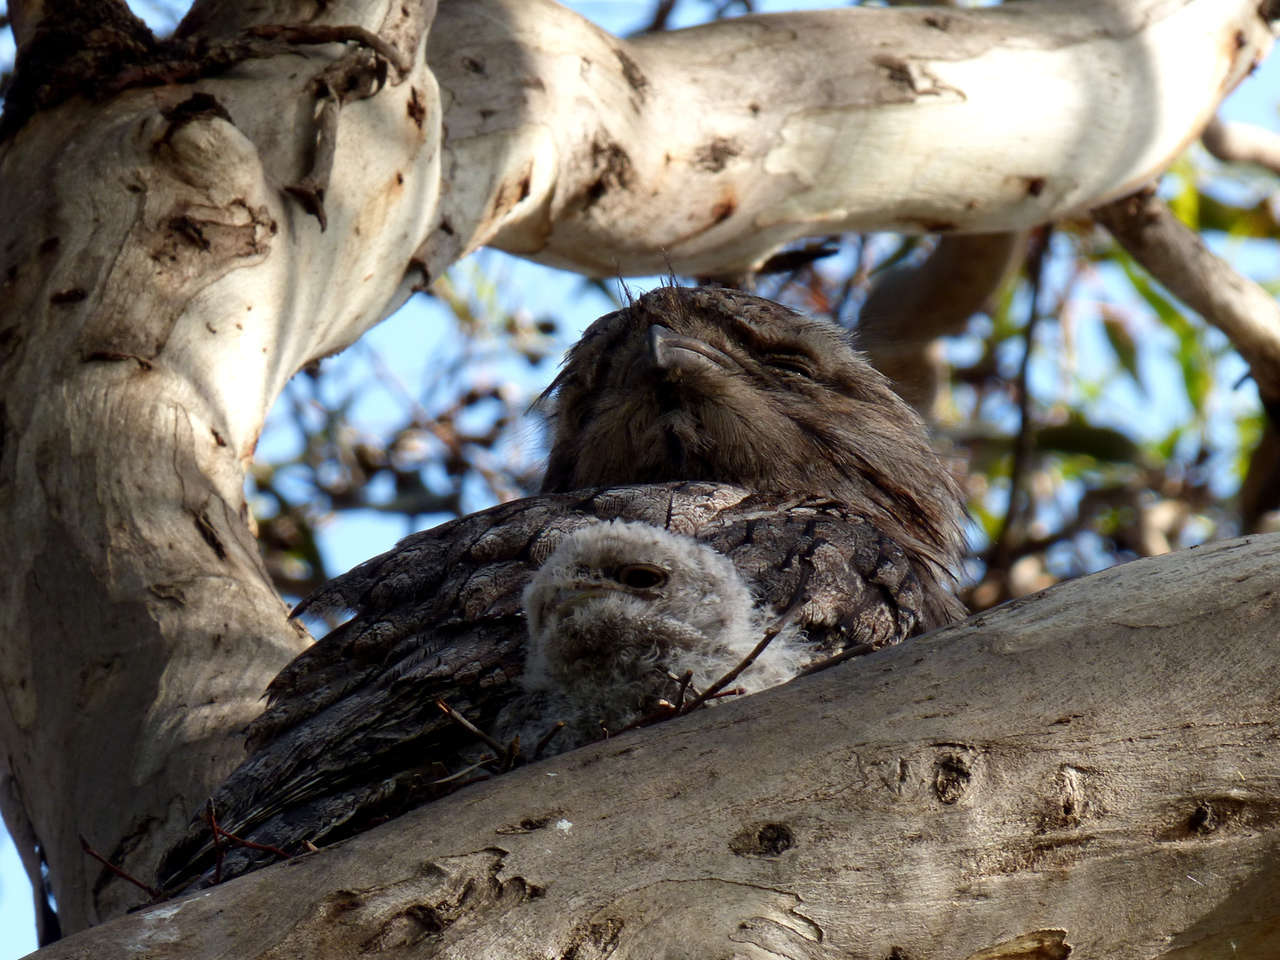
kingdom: Animalia
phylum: Chordata
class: Aves
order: Caprimulgiformes
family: Podargidae
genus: Podargus
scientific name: Podargus strigoides
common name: Tawny frogmouth
